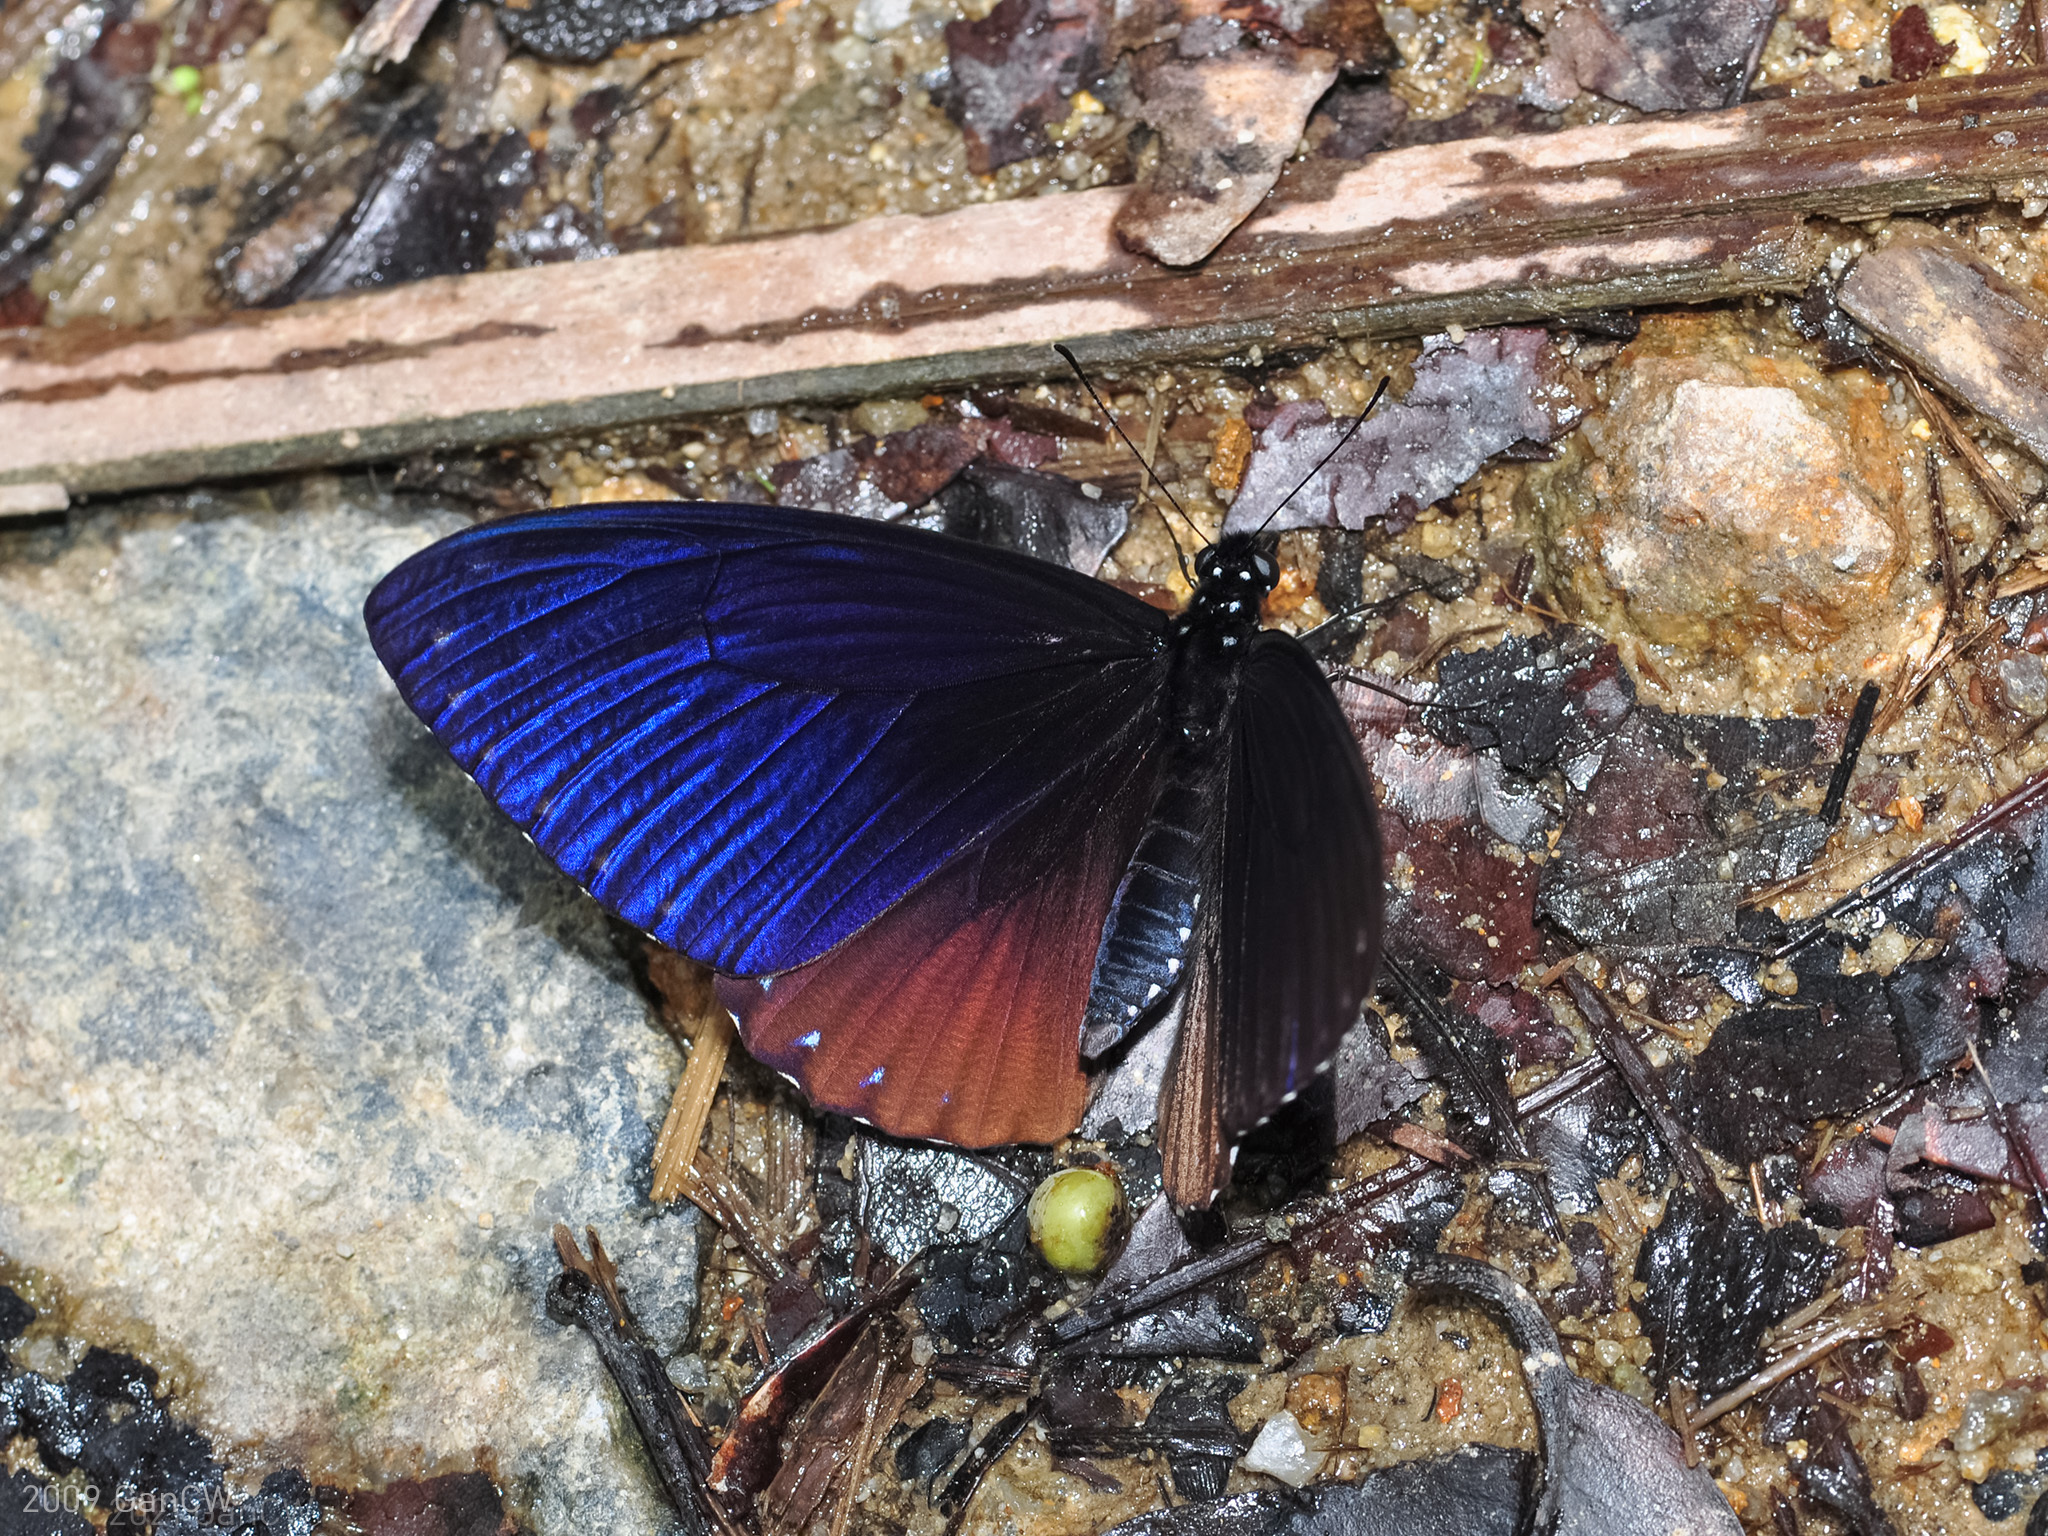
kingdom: Animalia
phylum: Arthropoda
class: Insecta
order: Lepidoptera
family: Papilionidae
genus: Papilio
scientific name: Papilio paradoxa
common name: Great blue mime swallowtail
